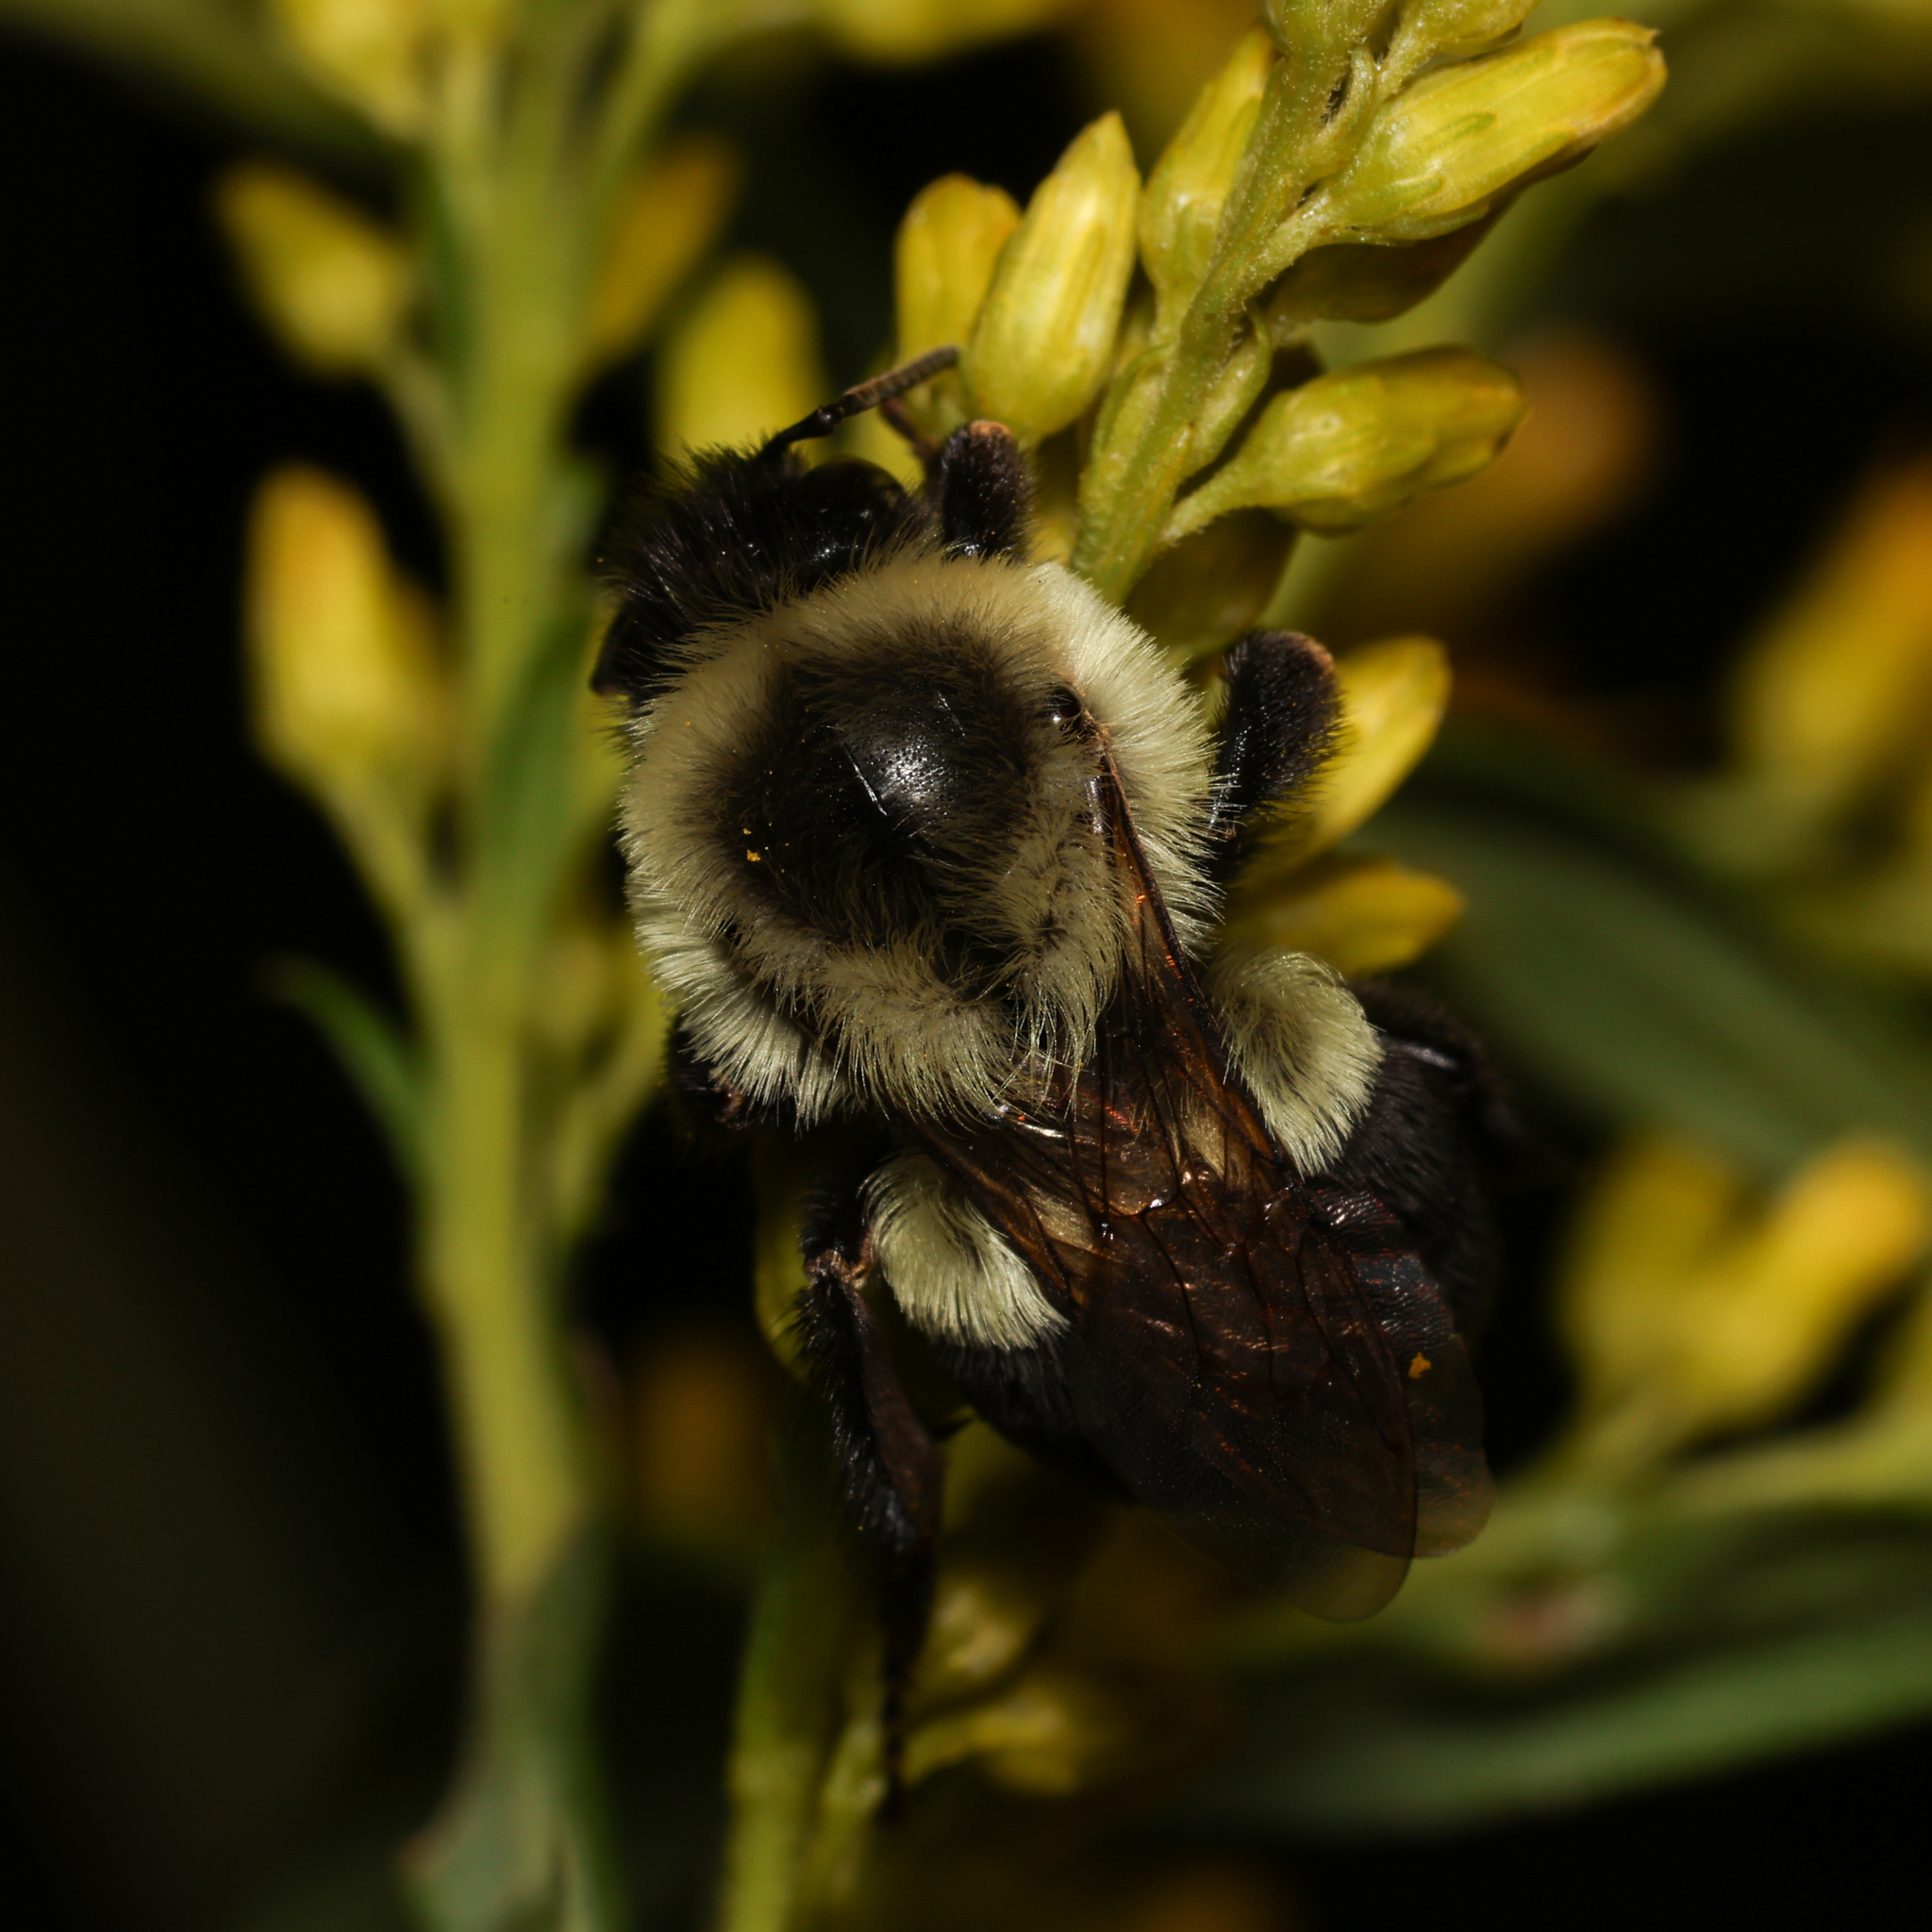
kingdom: Animalia
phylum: Arthropoda
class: Insecta
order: Hymenoptera
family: Apidae
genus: Bombus
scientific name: Bombus impatiens
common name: Common eastern bumble bee
